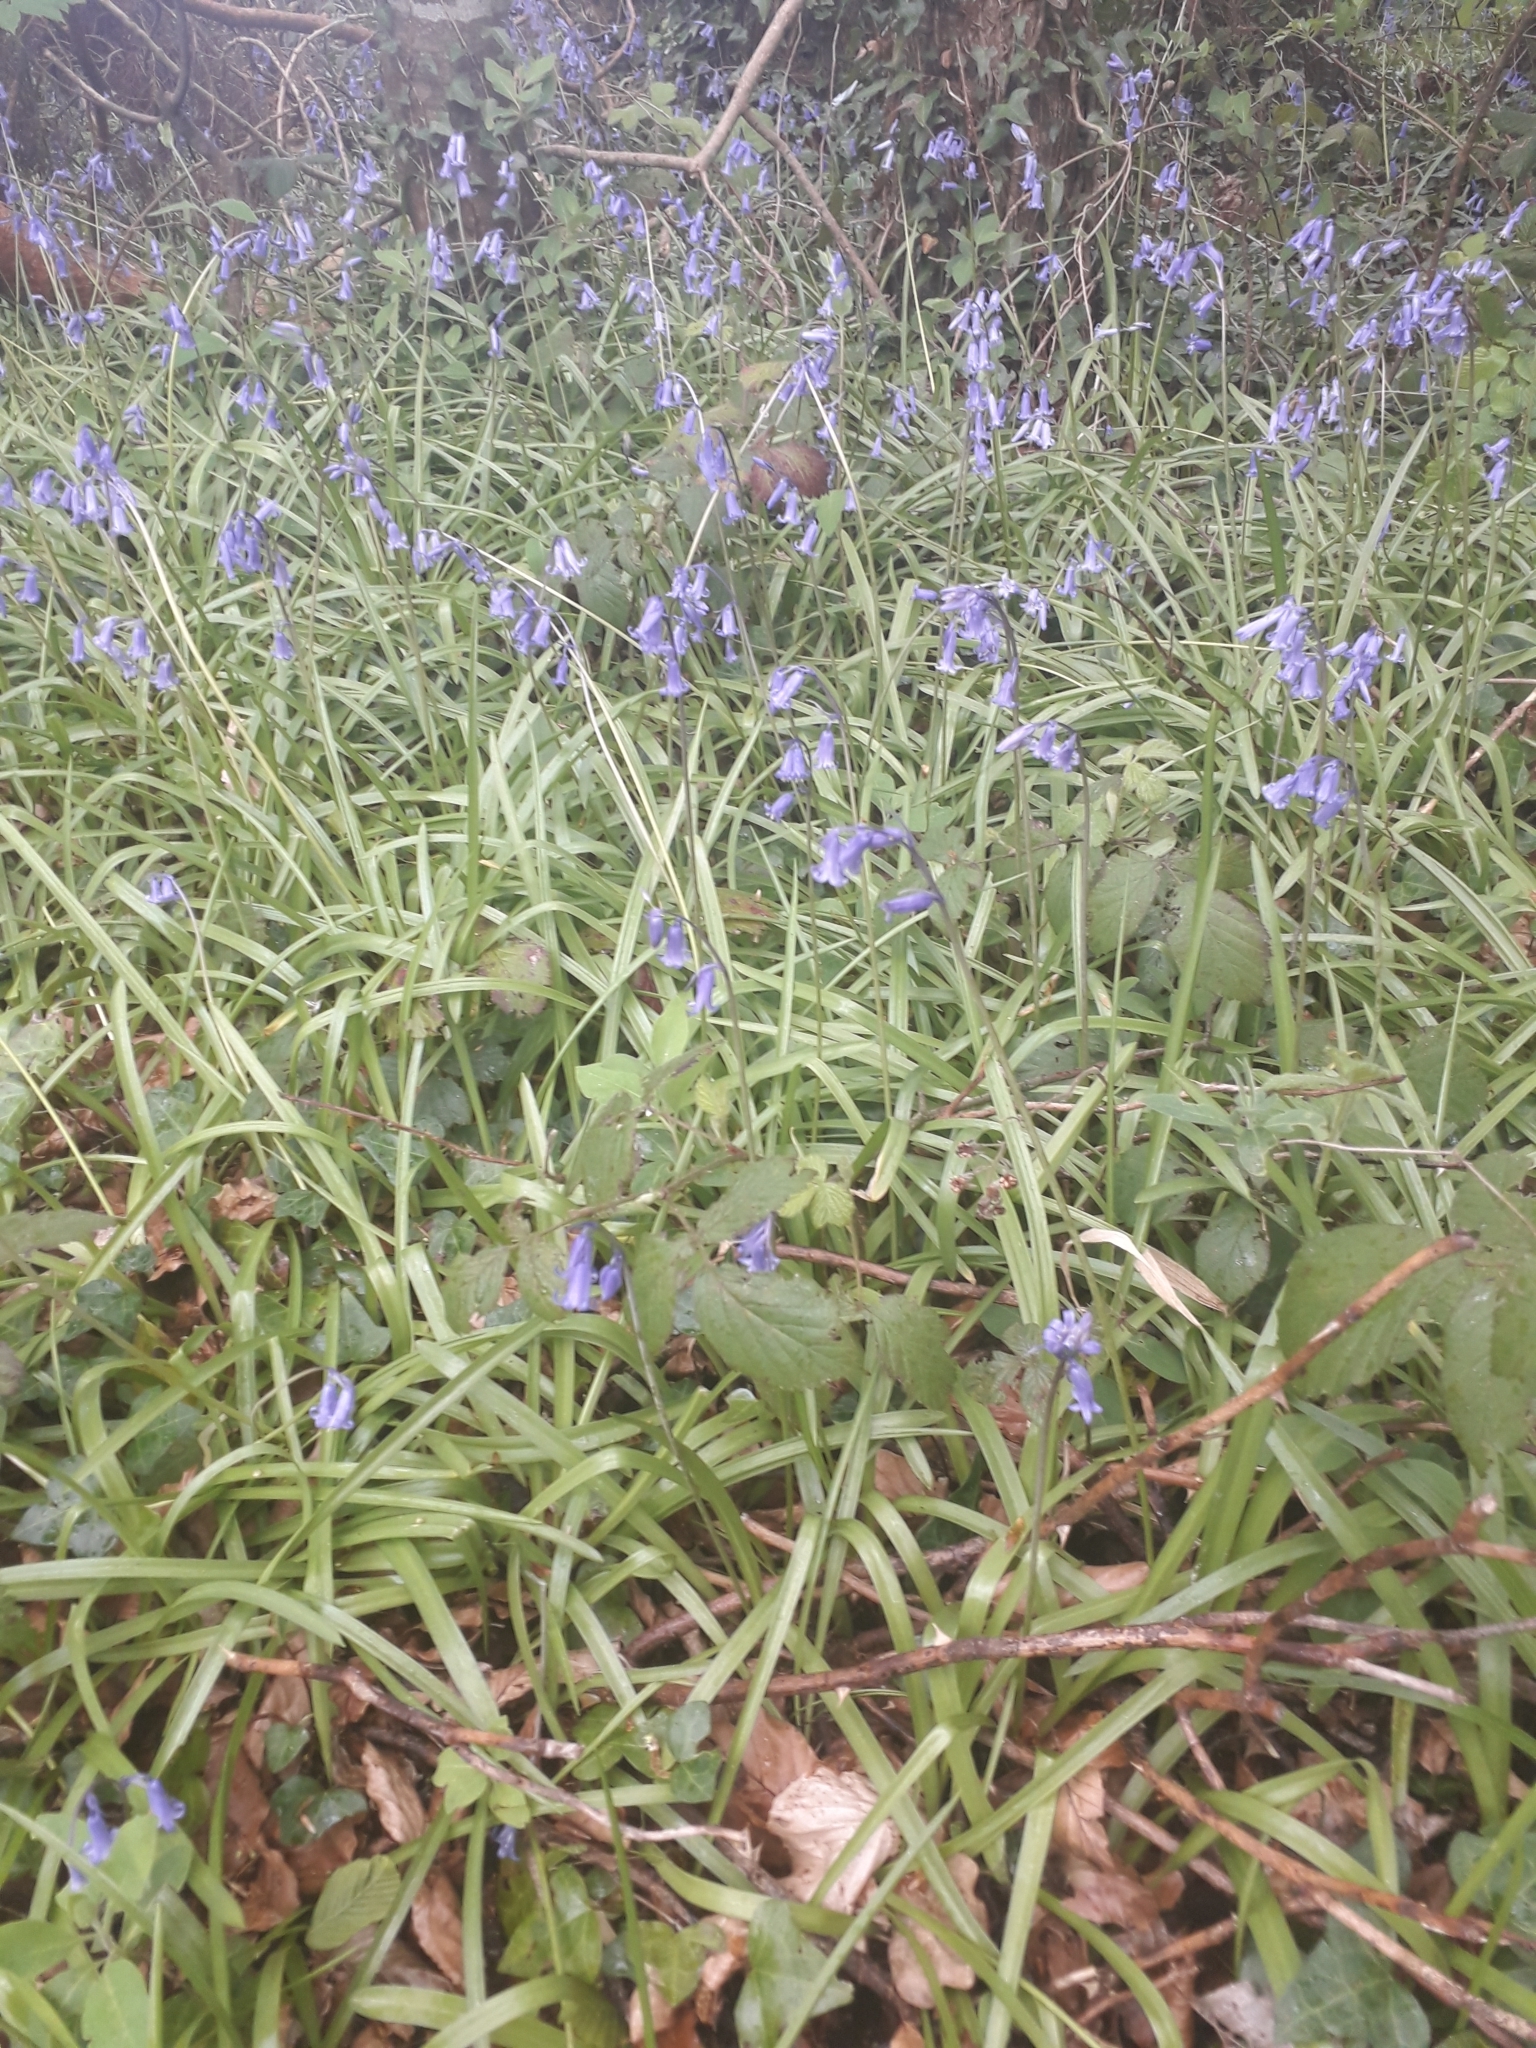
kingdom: Plantae
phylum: Tracheophyta
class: Liliopsida
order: Asparagales
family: Asparagaceae
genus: Hyacinthoides
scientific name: Hyacinthoides non-scripta
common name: Bluebell
